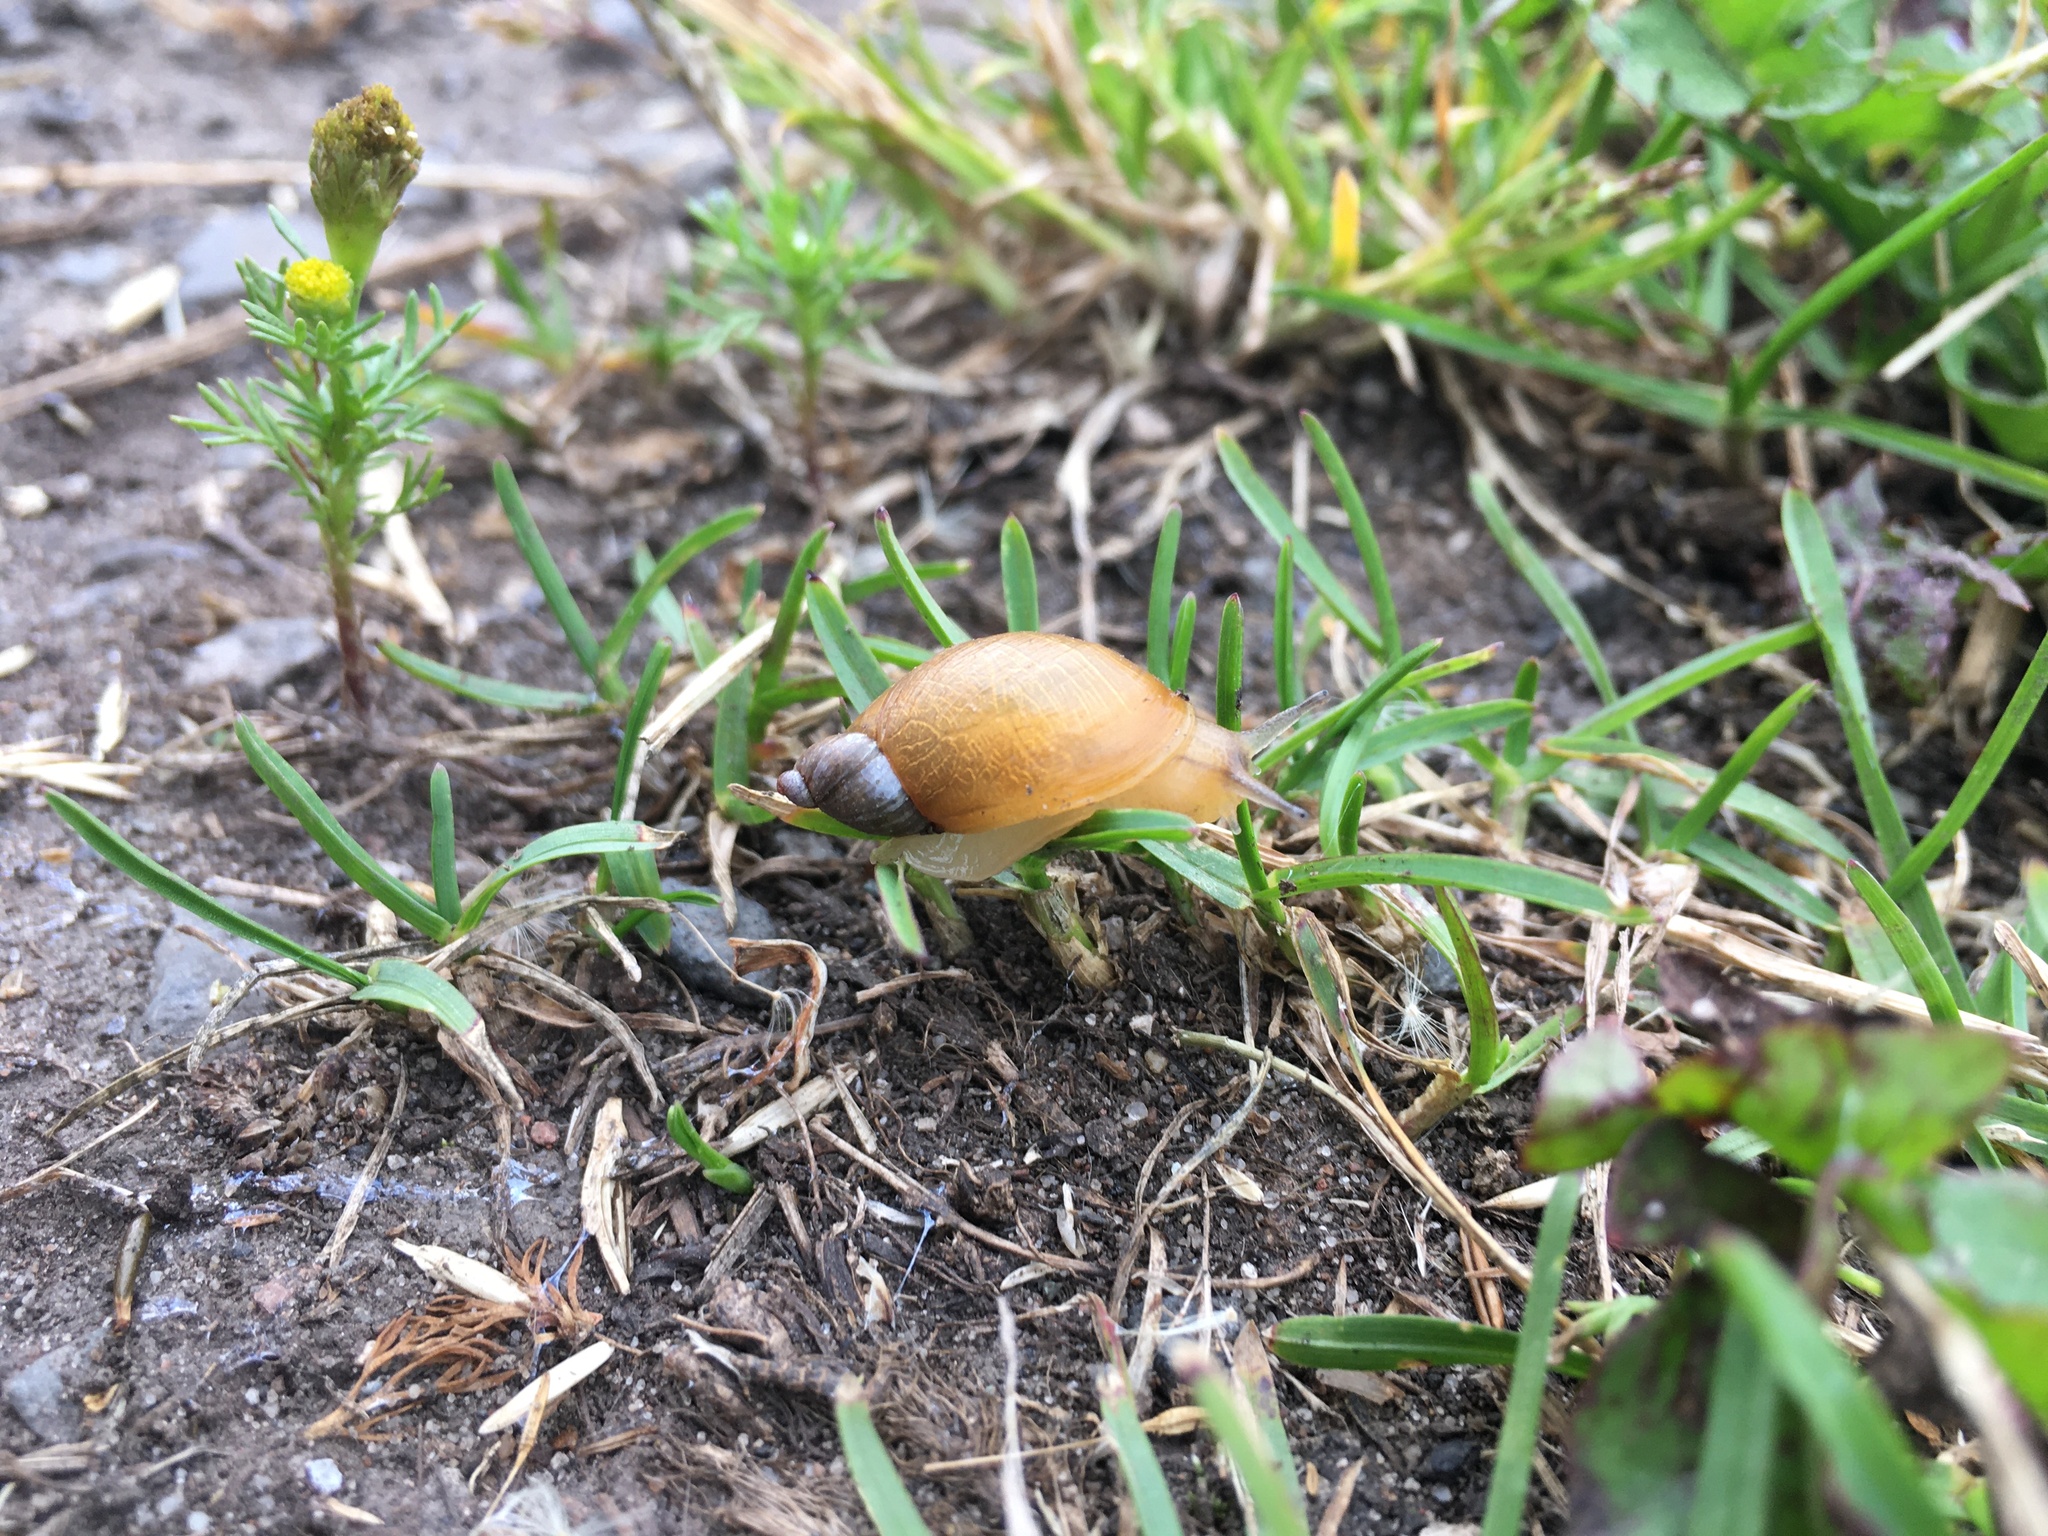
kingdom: Animalia
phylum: Mollusca
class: Gastropoda
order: Stylommatophora
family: Succineidae
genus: Succinea
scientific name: Succinea putris
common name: European ambersnail
